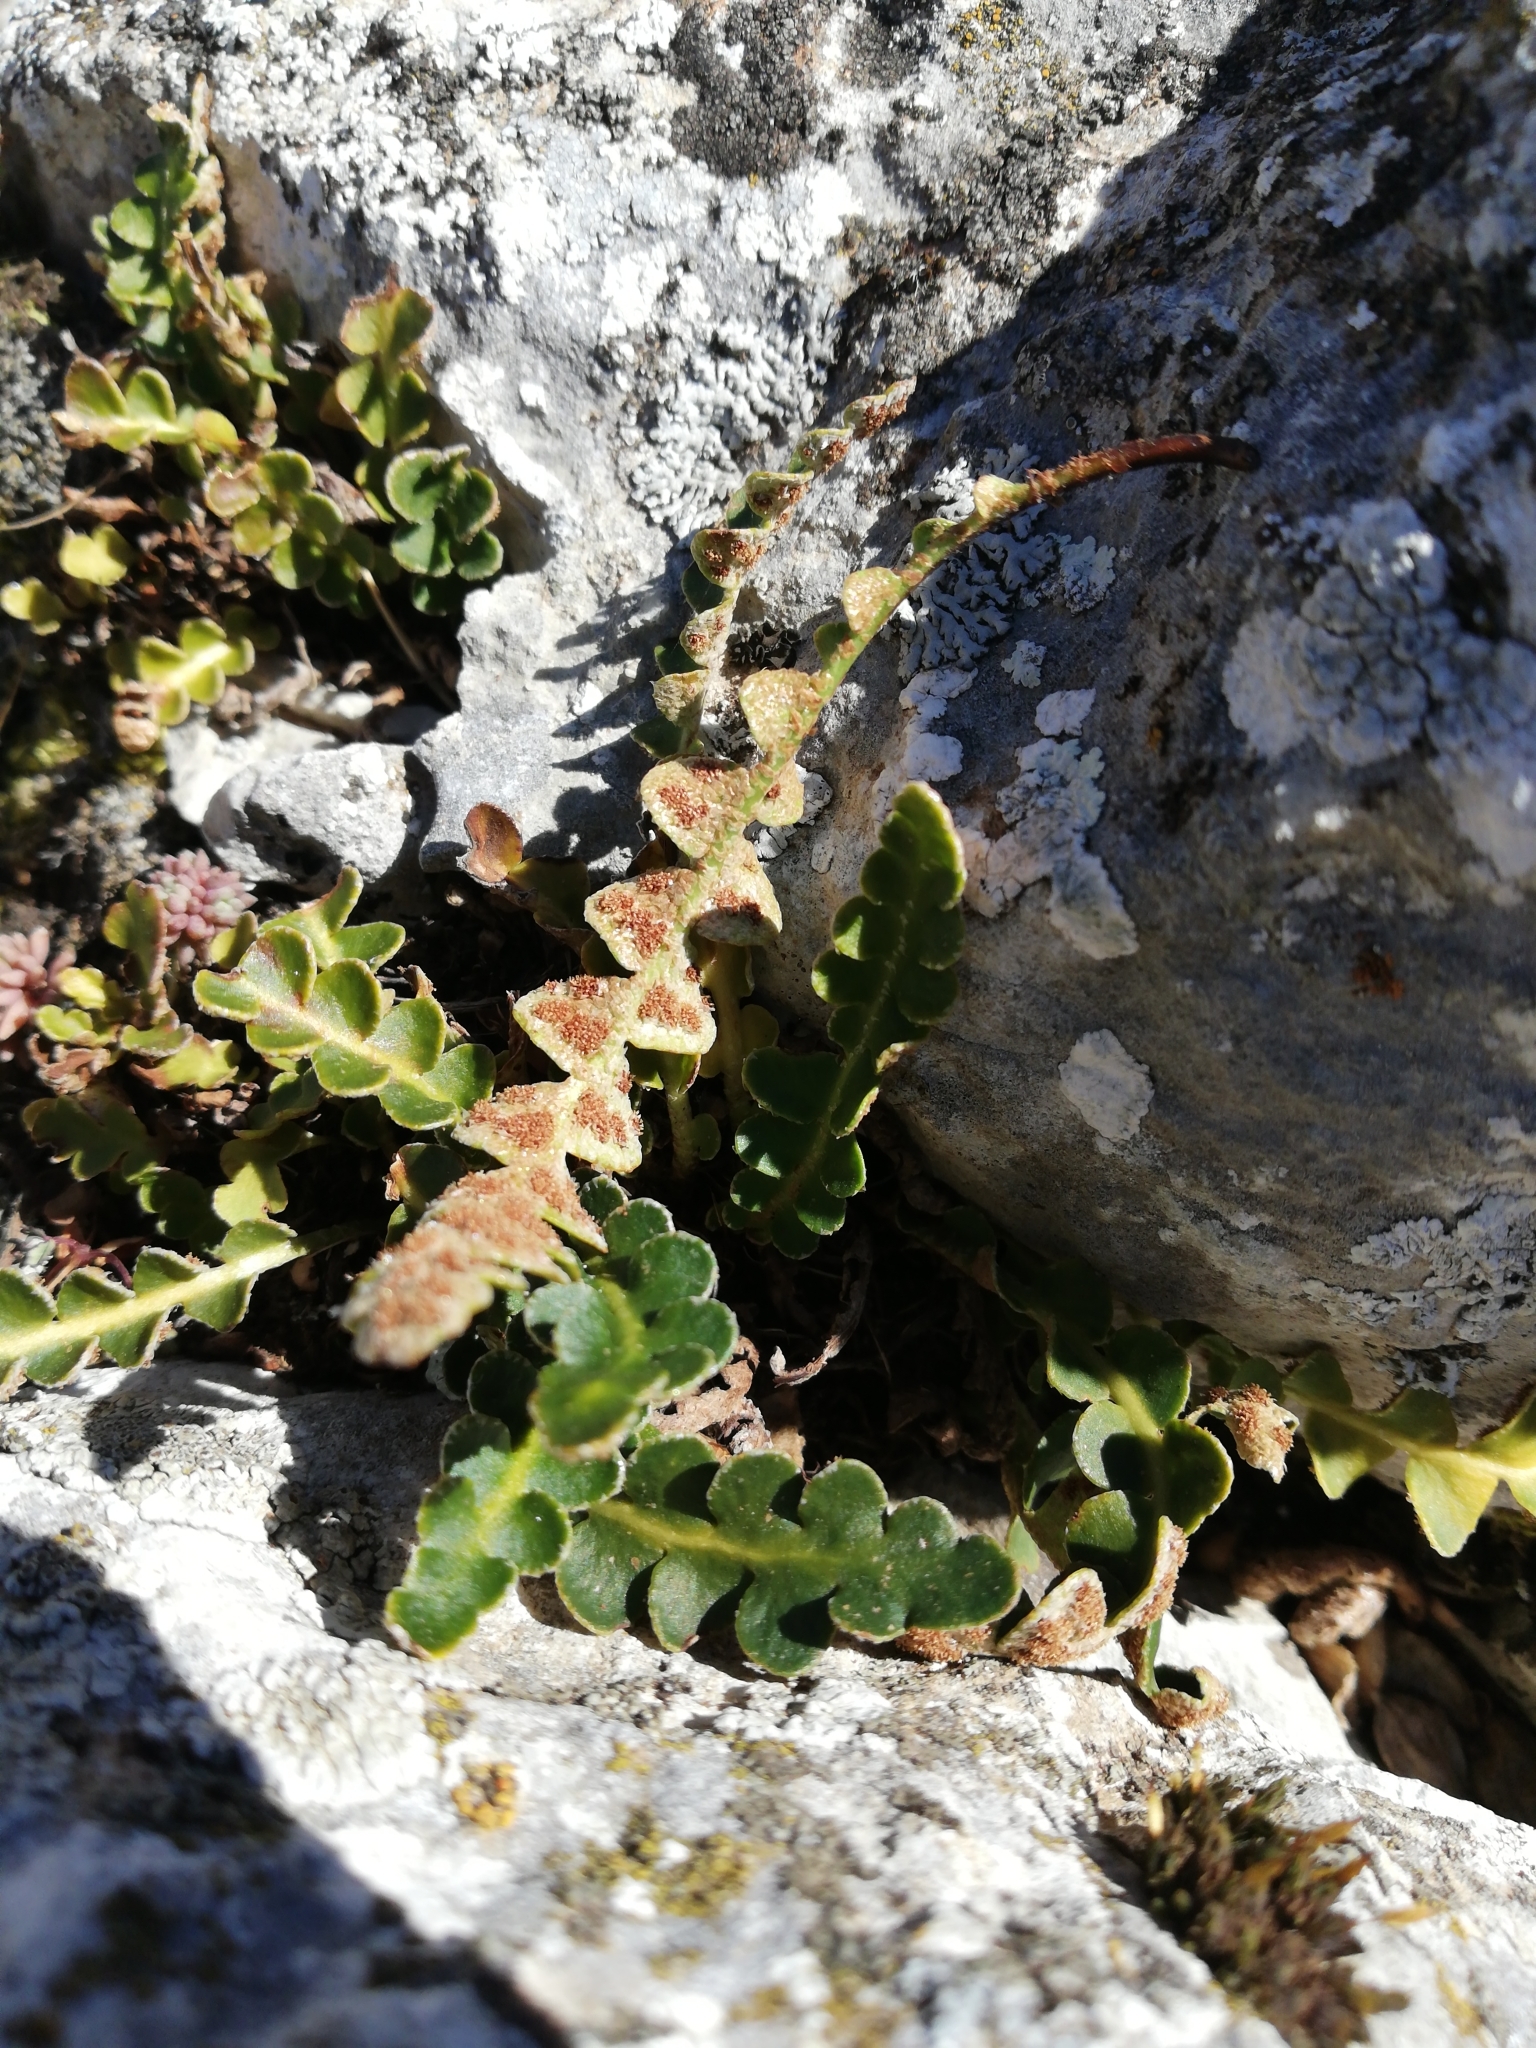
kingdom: Plantae
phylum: Tracheophyta
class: Polypodiopsida
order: Polypodiales
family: Aspleniaceae
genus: Asplenium
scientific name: Asplenium ceterach
